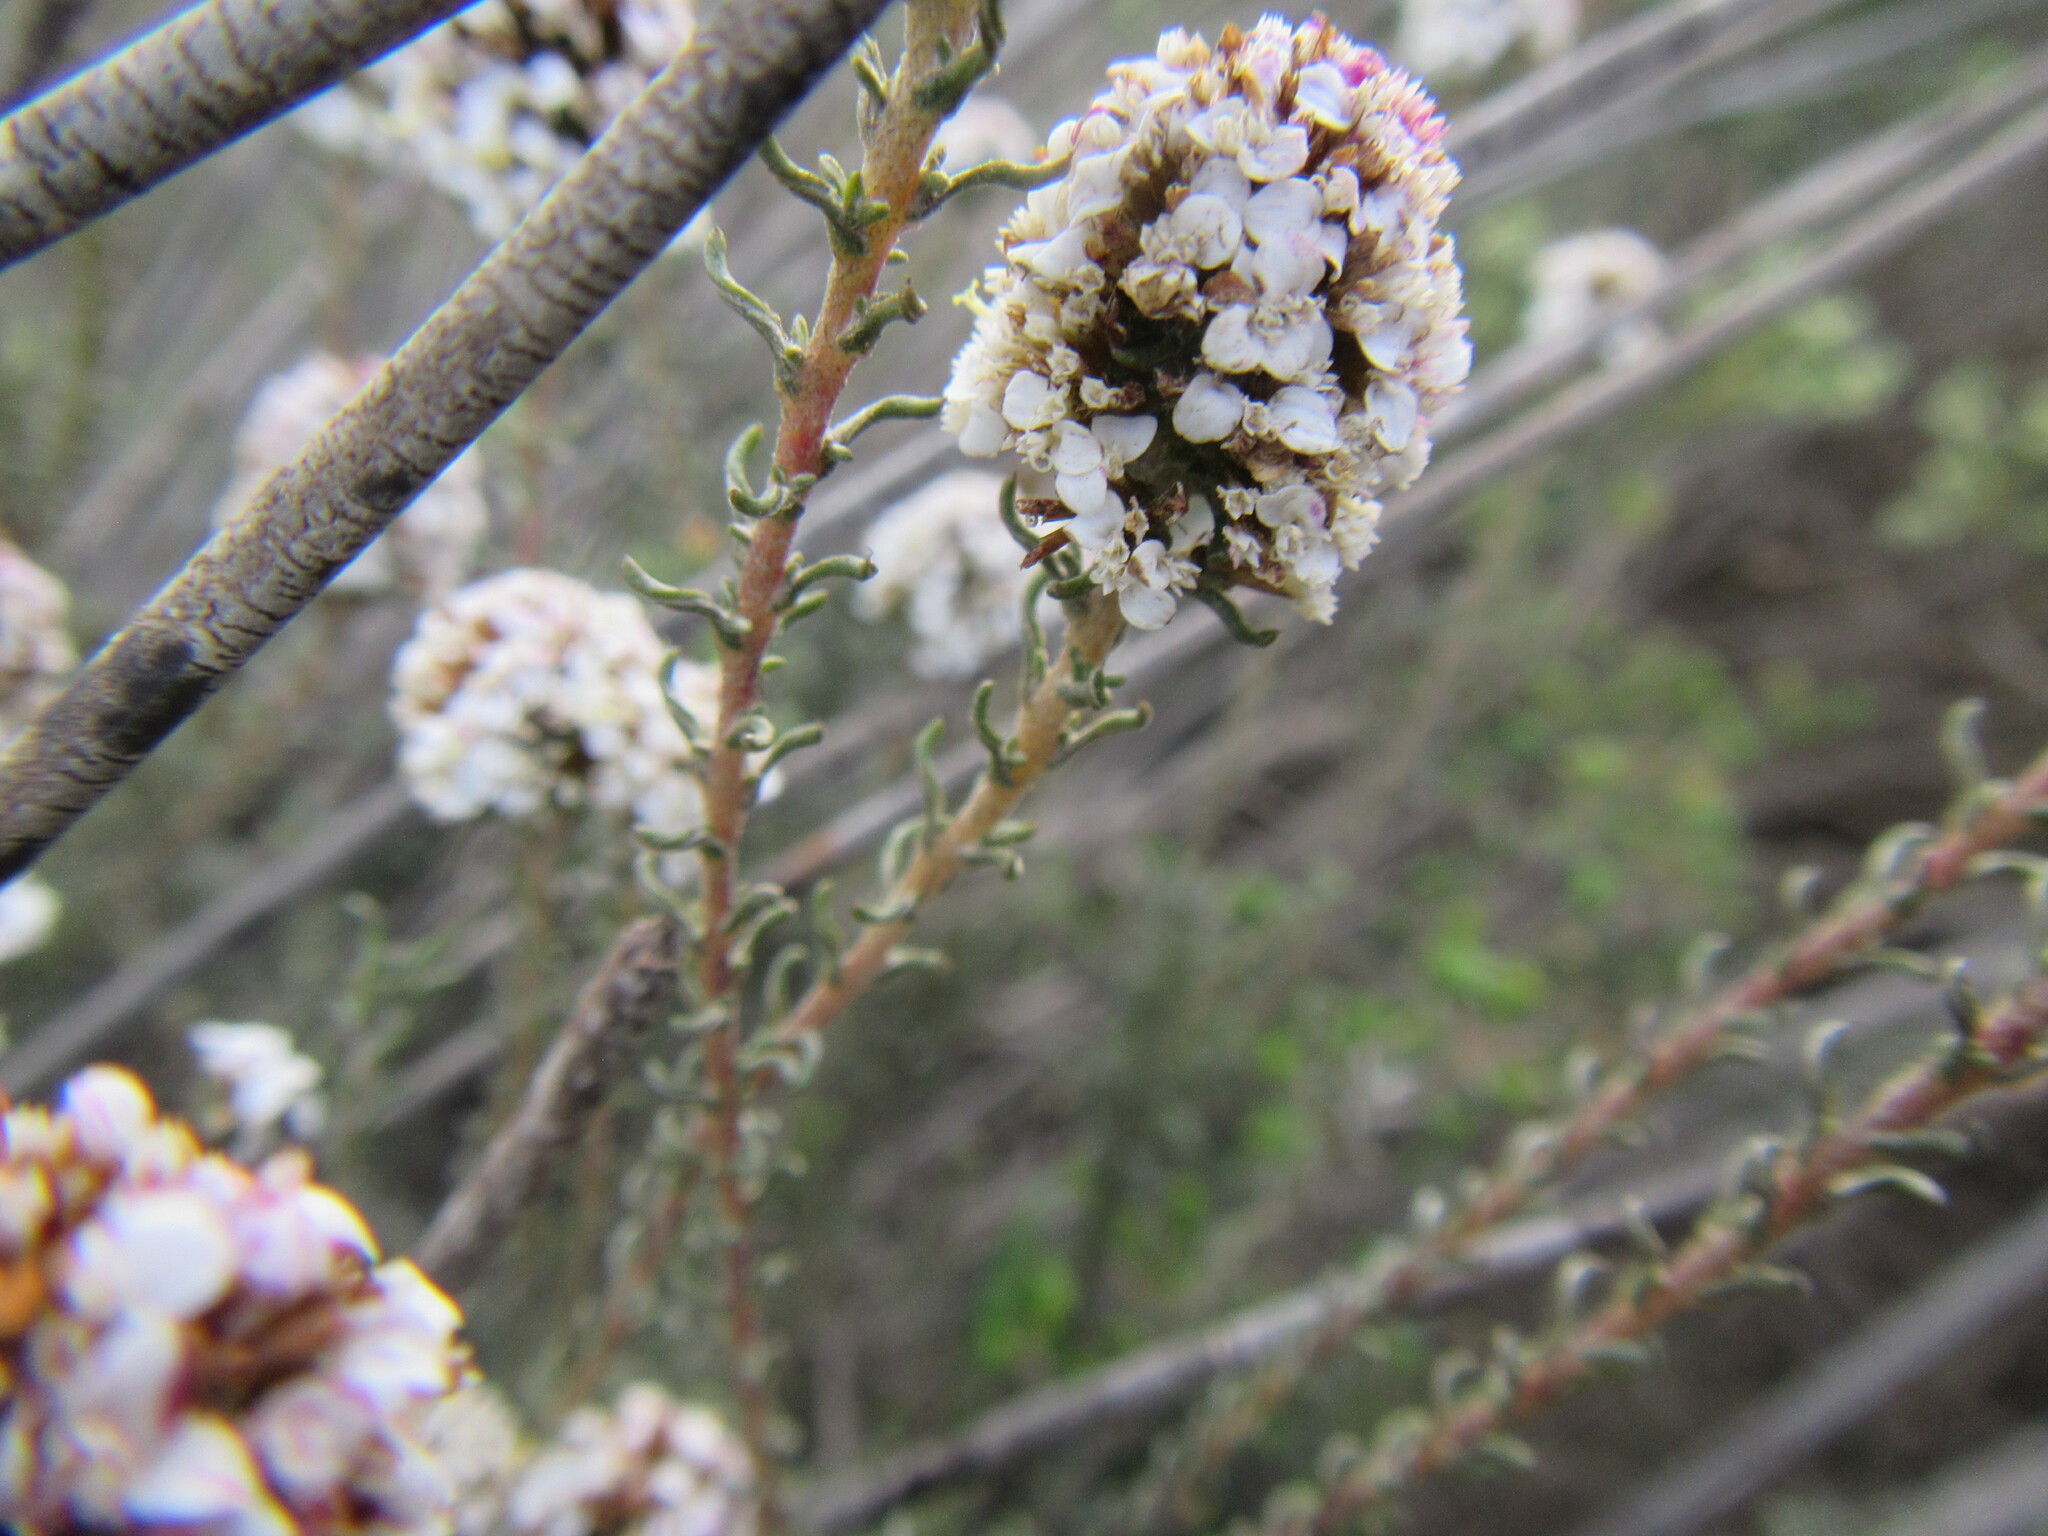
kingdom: Plantae
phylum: Tracheophyta
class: Magnoliopsida
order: Asterales
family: Asteraceae
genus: Disparago
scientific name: Disparago anomala
